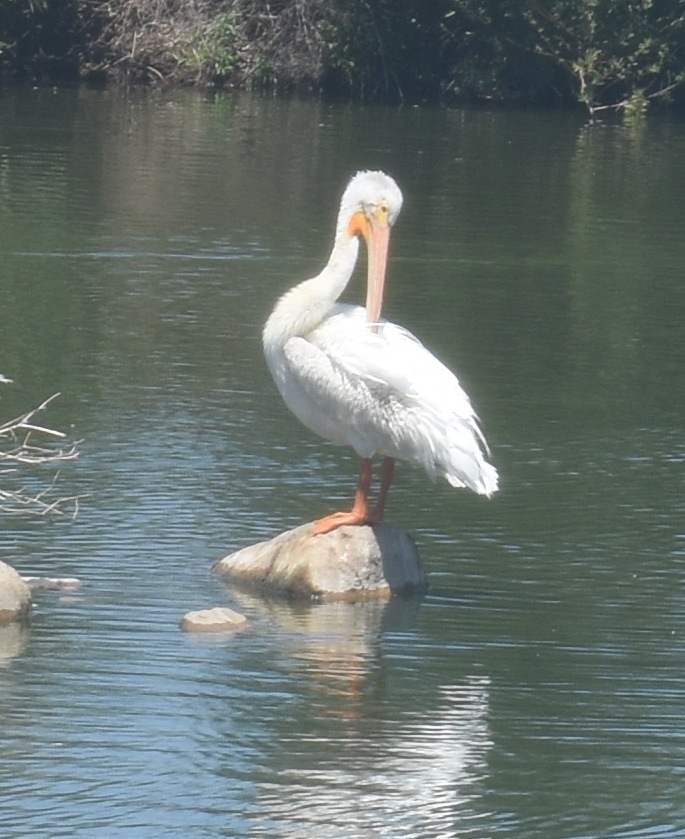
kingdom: Animalia
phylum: Chordata
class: Aves
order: Pelecaniformes
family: Pelecanidae
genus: Pelecanus
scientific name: Pelecanus erythrorhynchos
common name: American white pelican
